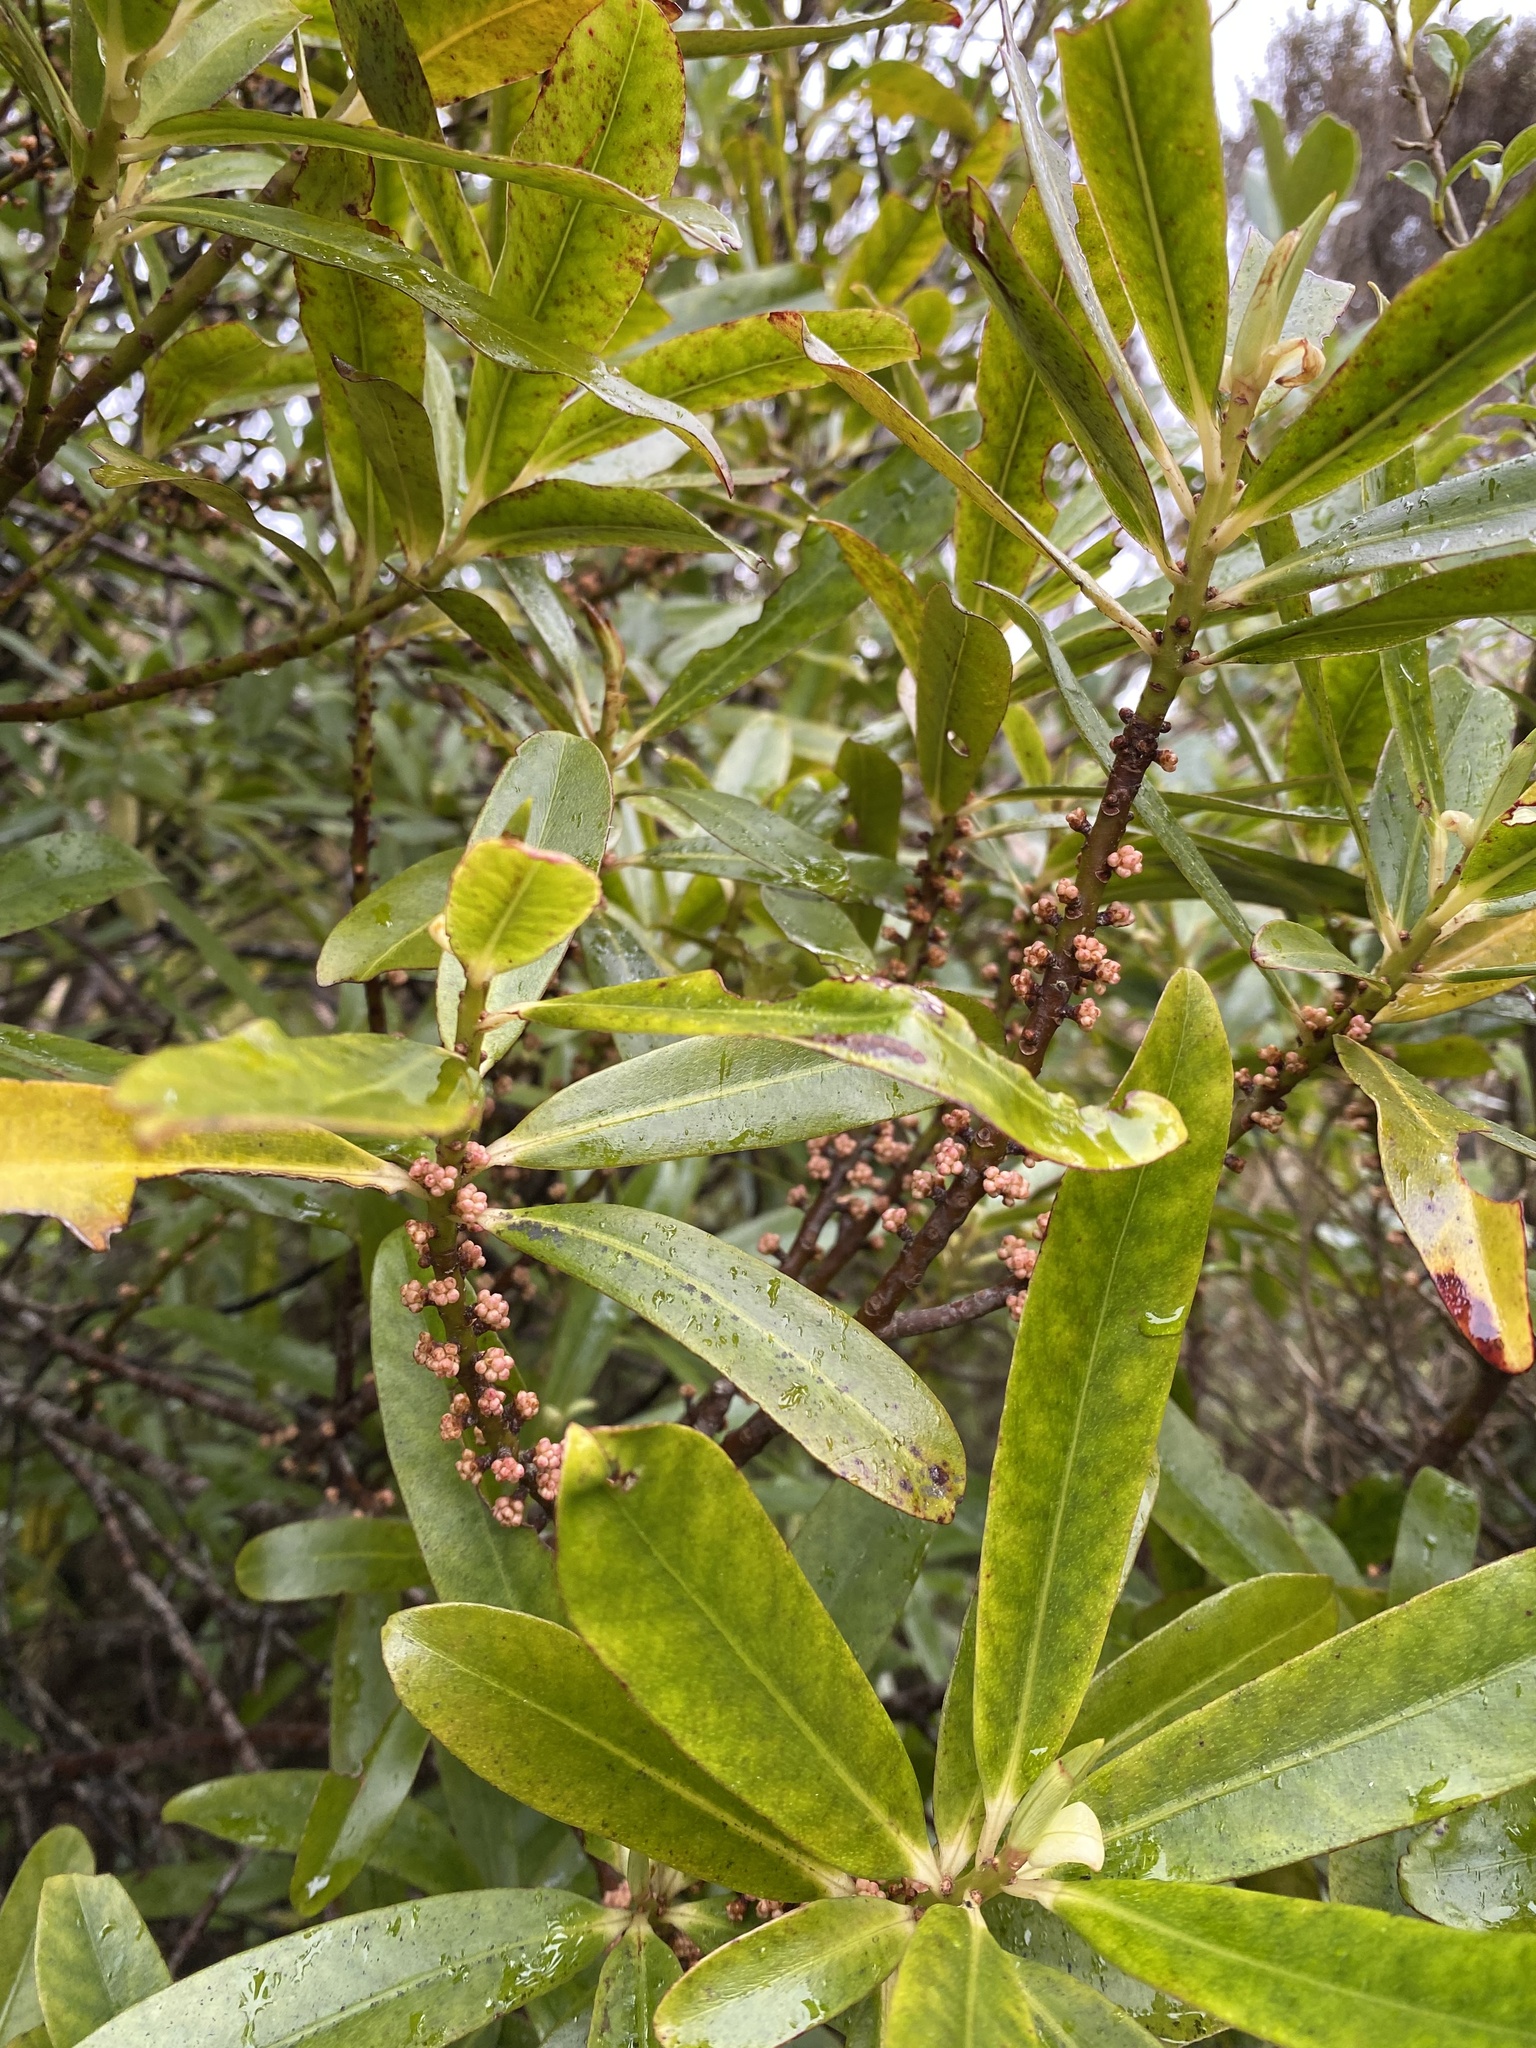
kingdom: Plantae
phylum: Tracheophyta
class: Magnoliopsida
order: Ericales
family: Primulaceae
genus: Myrsine
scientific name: Myrsine salicina
